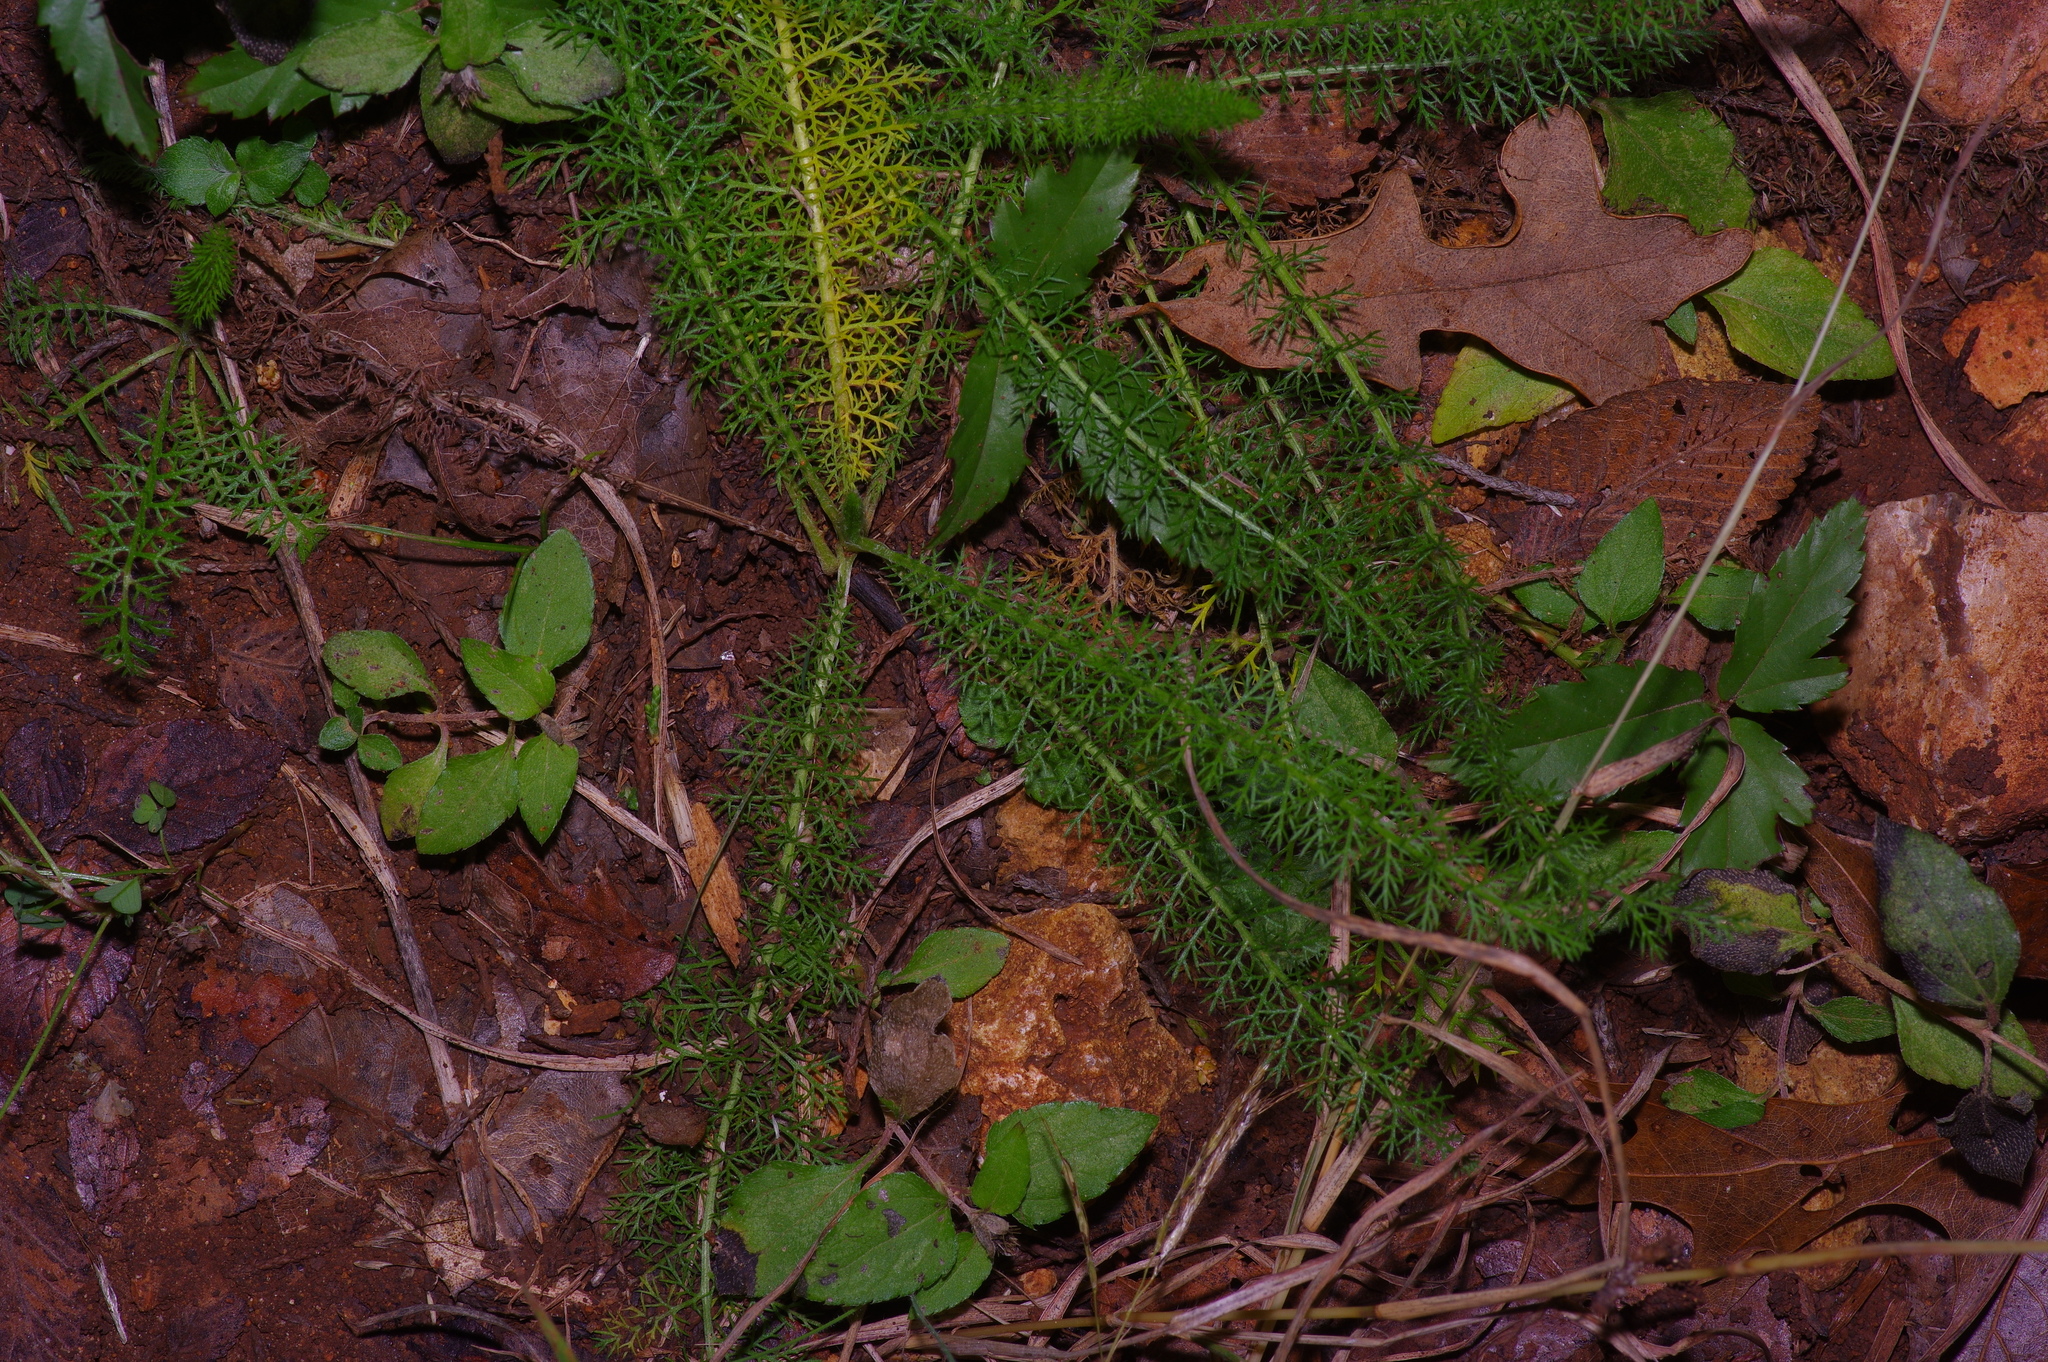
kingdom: Plantae
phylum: Tracheophyta
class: Magnoliopsida
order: Asterales
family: Asteraceae
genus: Achillea
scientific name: Achillea millefolium
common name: Yarrow
